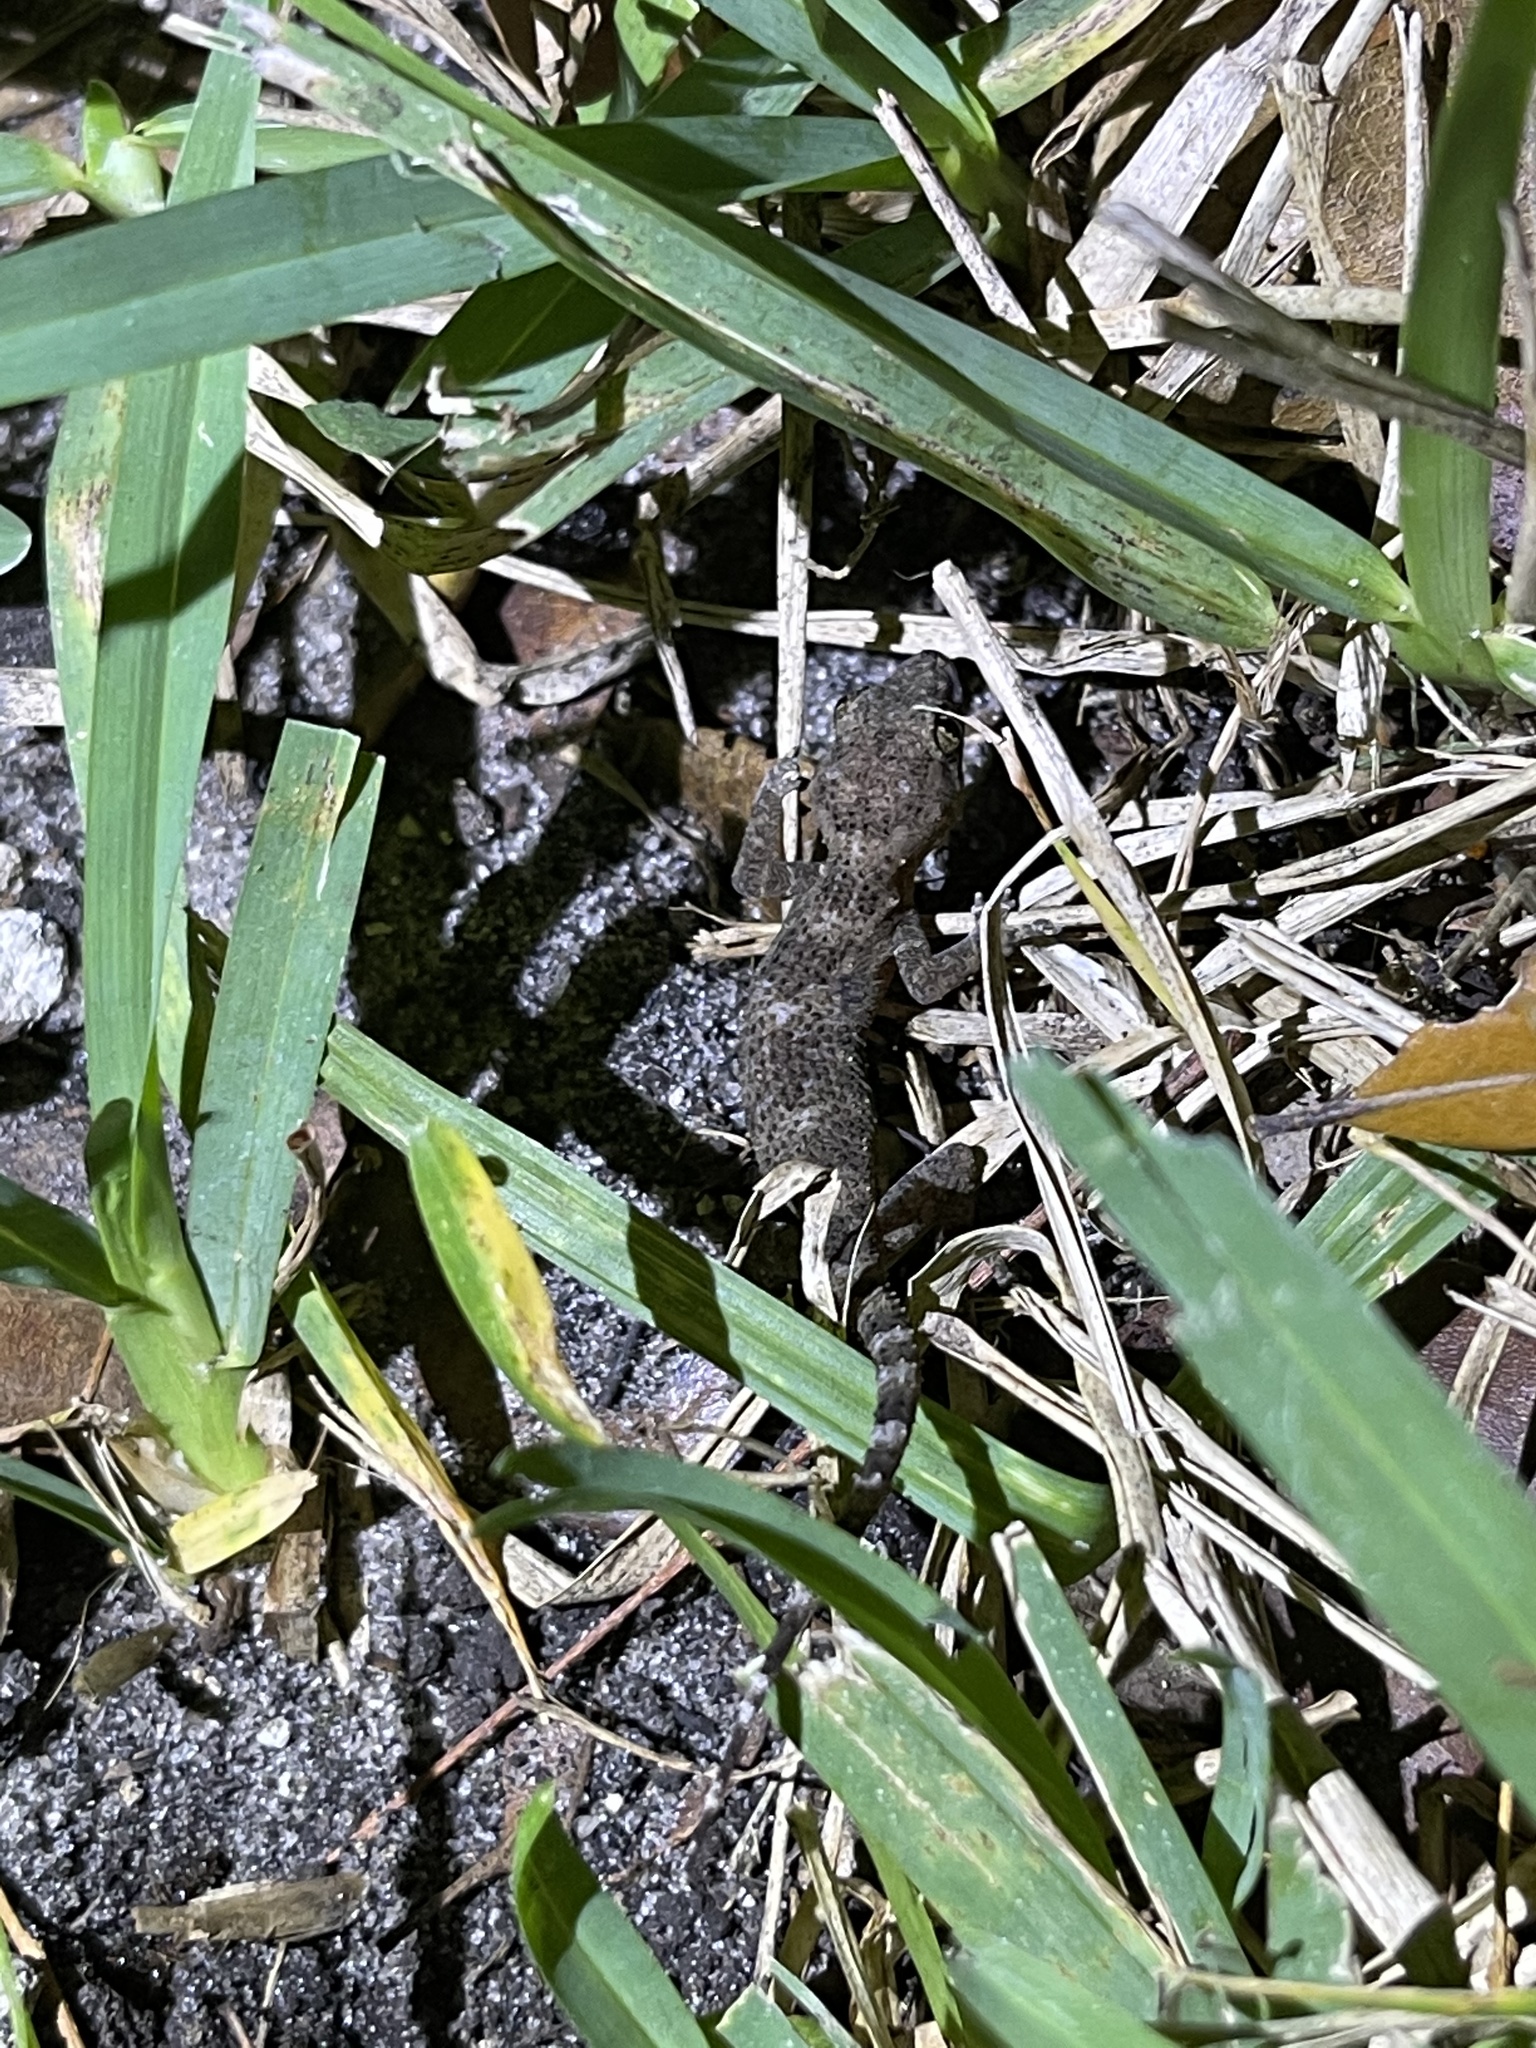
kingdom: Animalia
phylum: Chordata
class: Squamata
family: Gekkonidae
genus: Hemidactylus
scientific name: Hemidactylus mabouia
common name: House gecko
